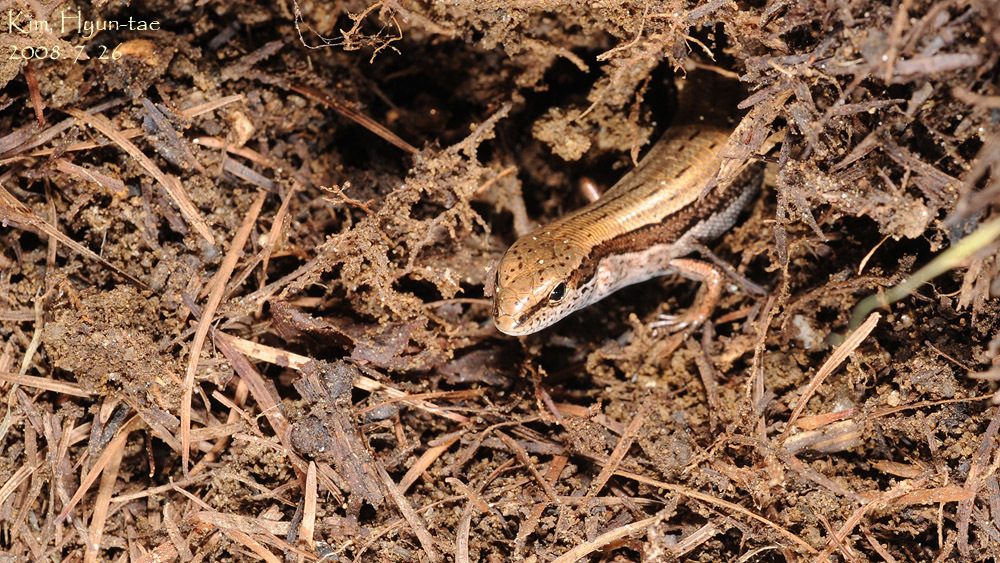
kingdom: Animalia
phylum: Chordata
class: Squamata
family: Scincidae
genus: Scincella
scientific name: Scincella huanrenensis
